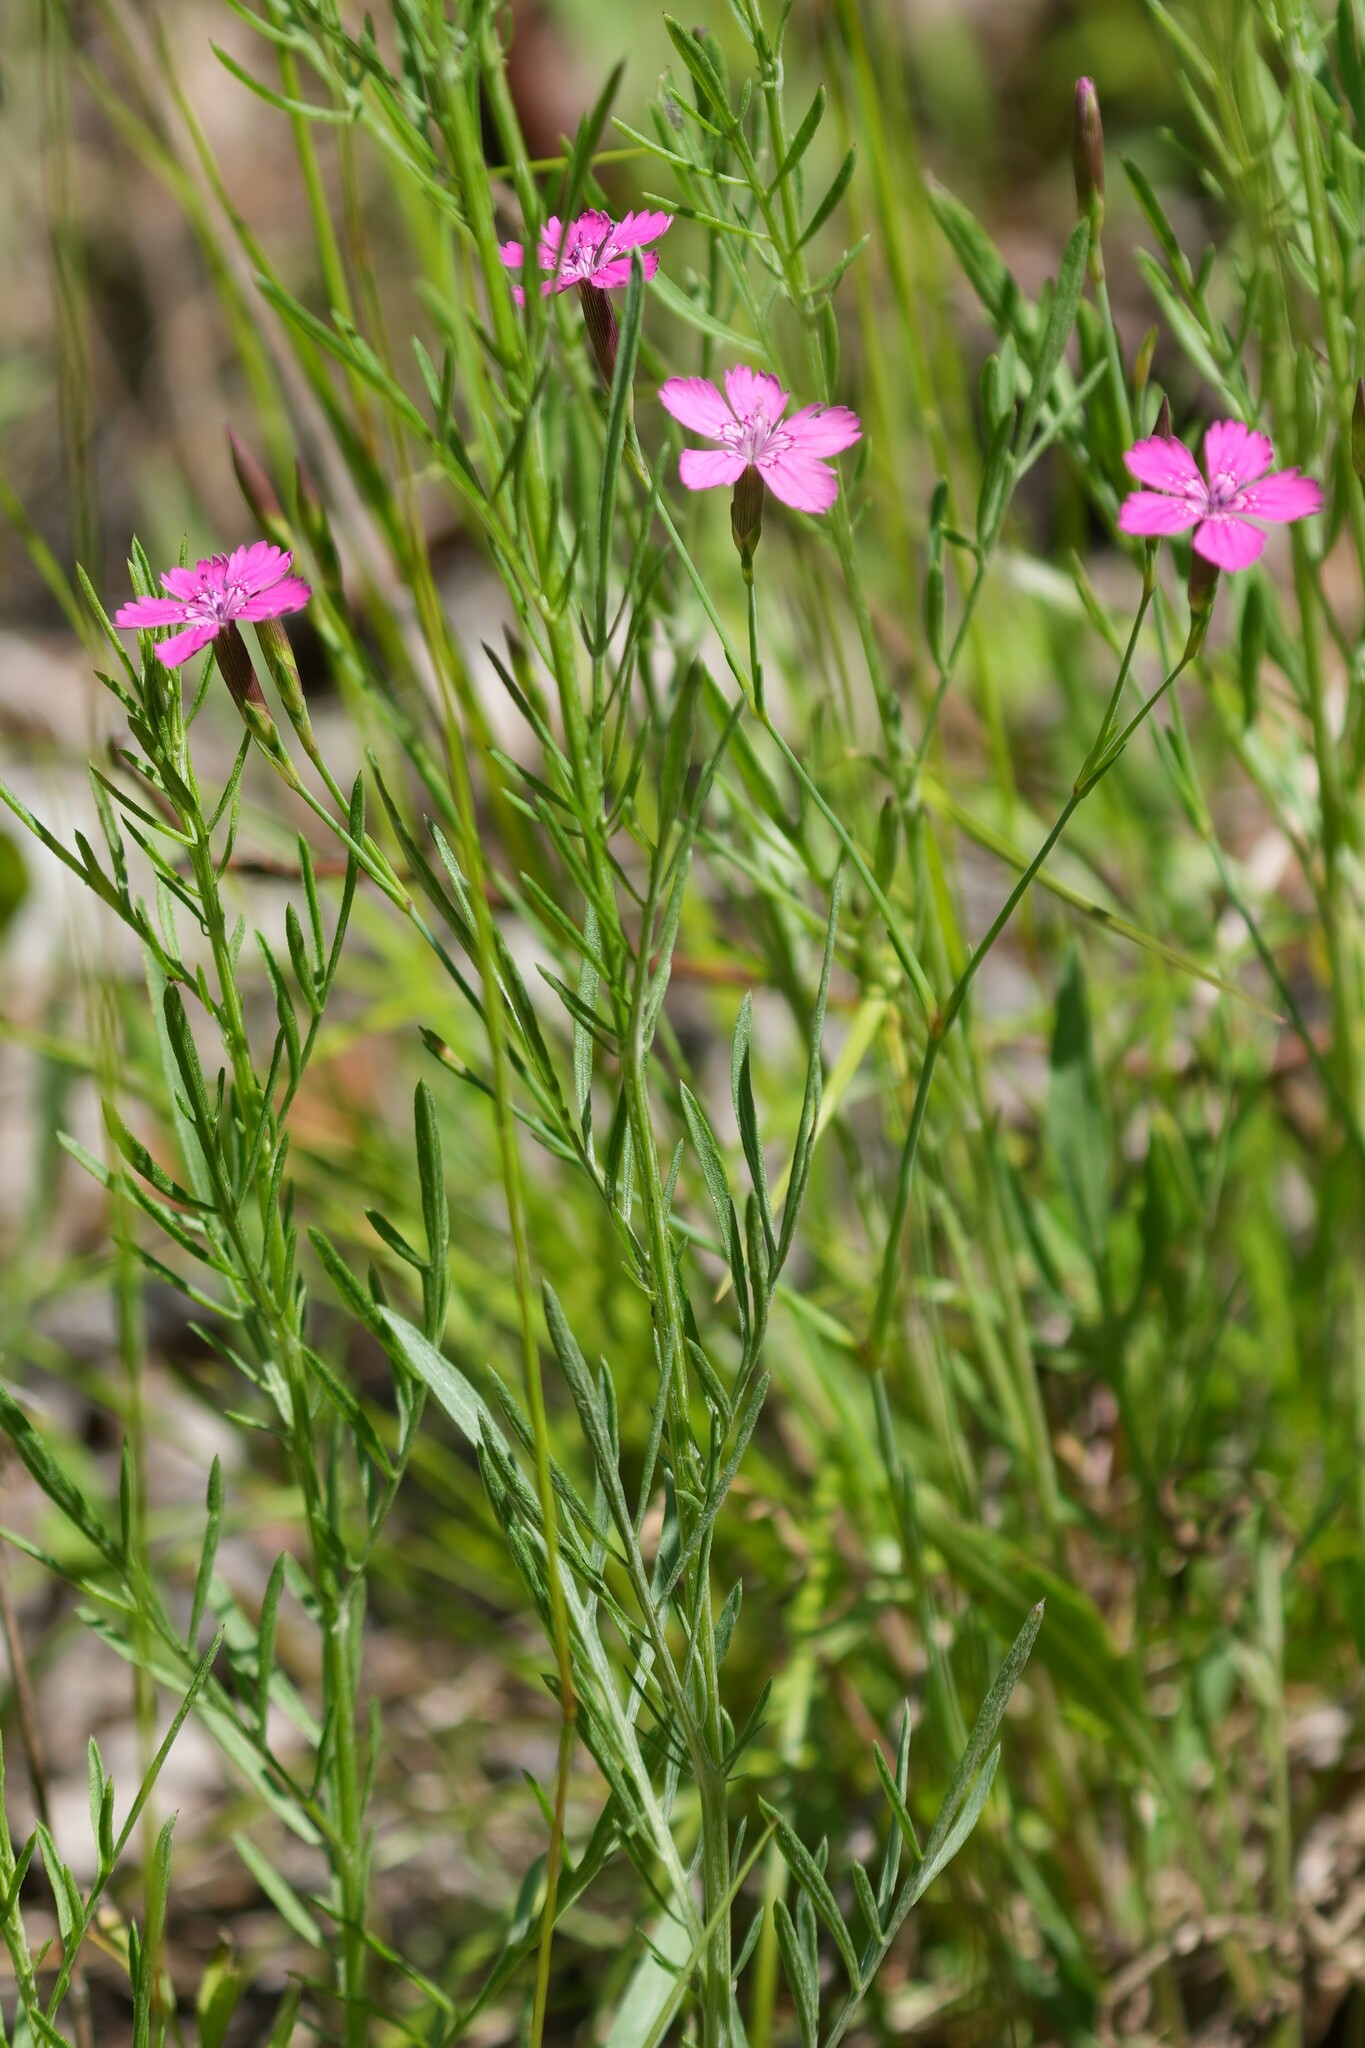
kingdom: Plantae
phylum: Tracheophyta
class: Magnoliopsida
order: Caryophyllales
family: Caryophyllaceae
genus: Dianthus
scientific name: Dianthus deltoides
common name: Maiden pink
